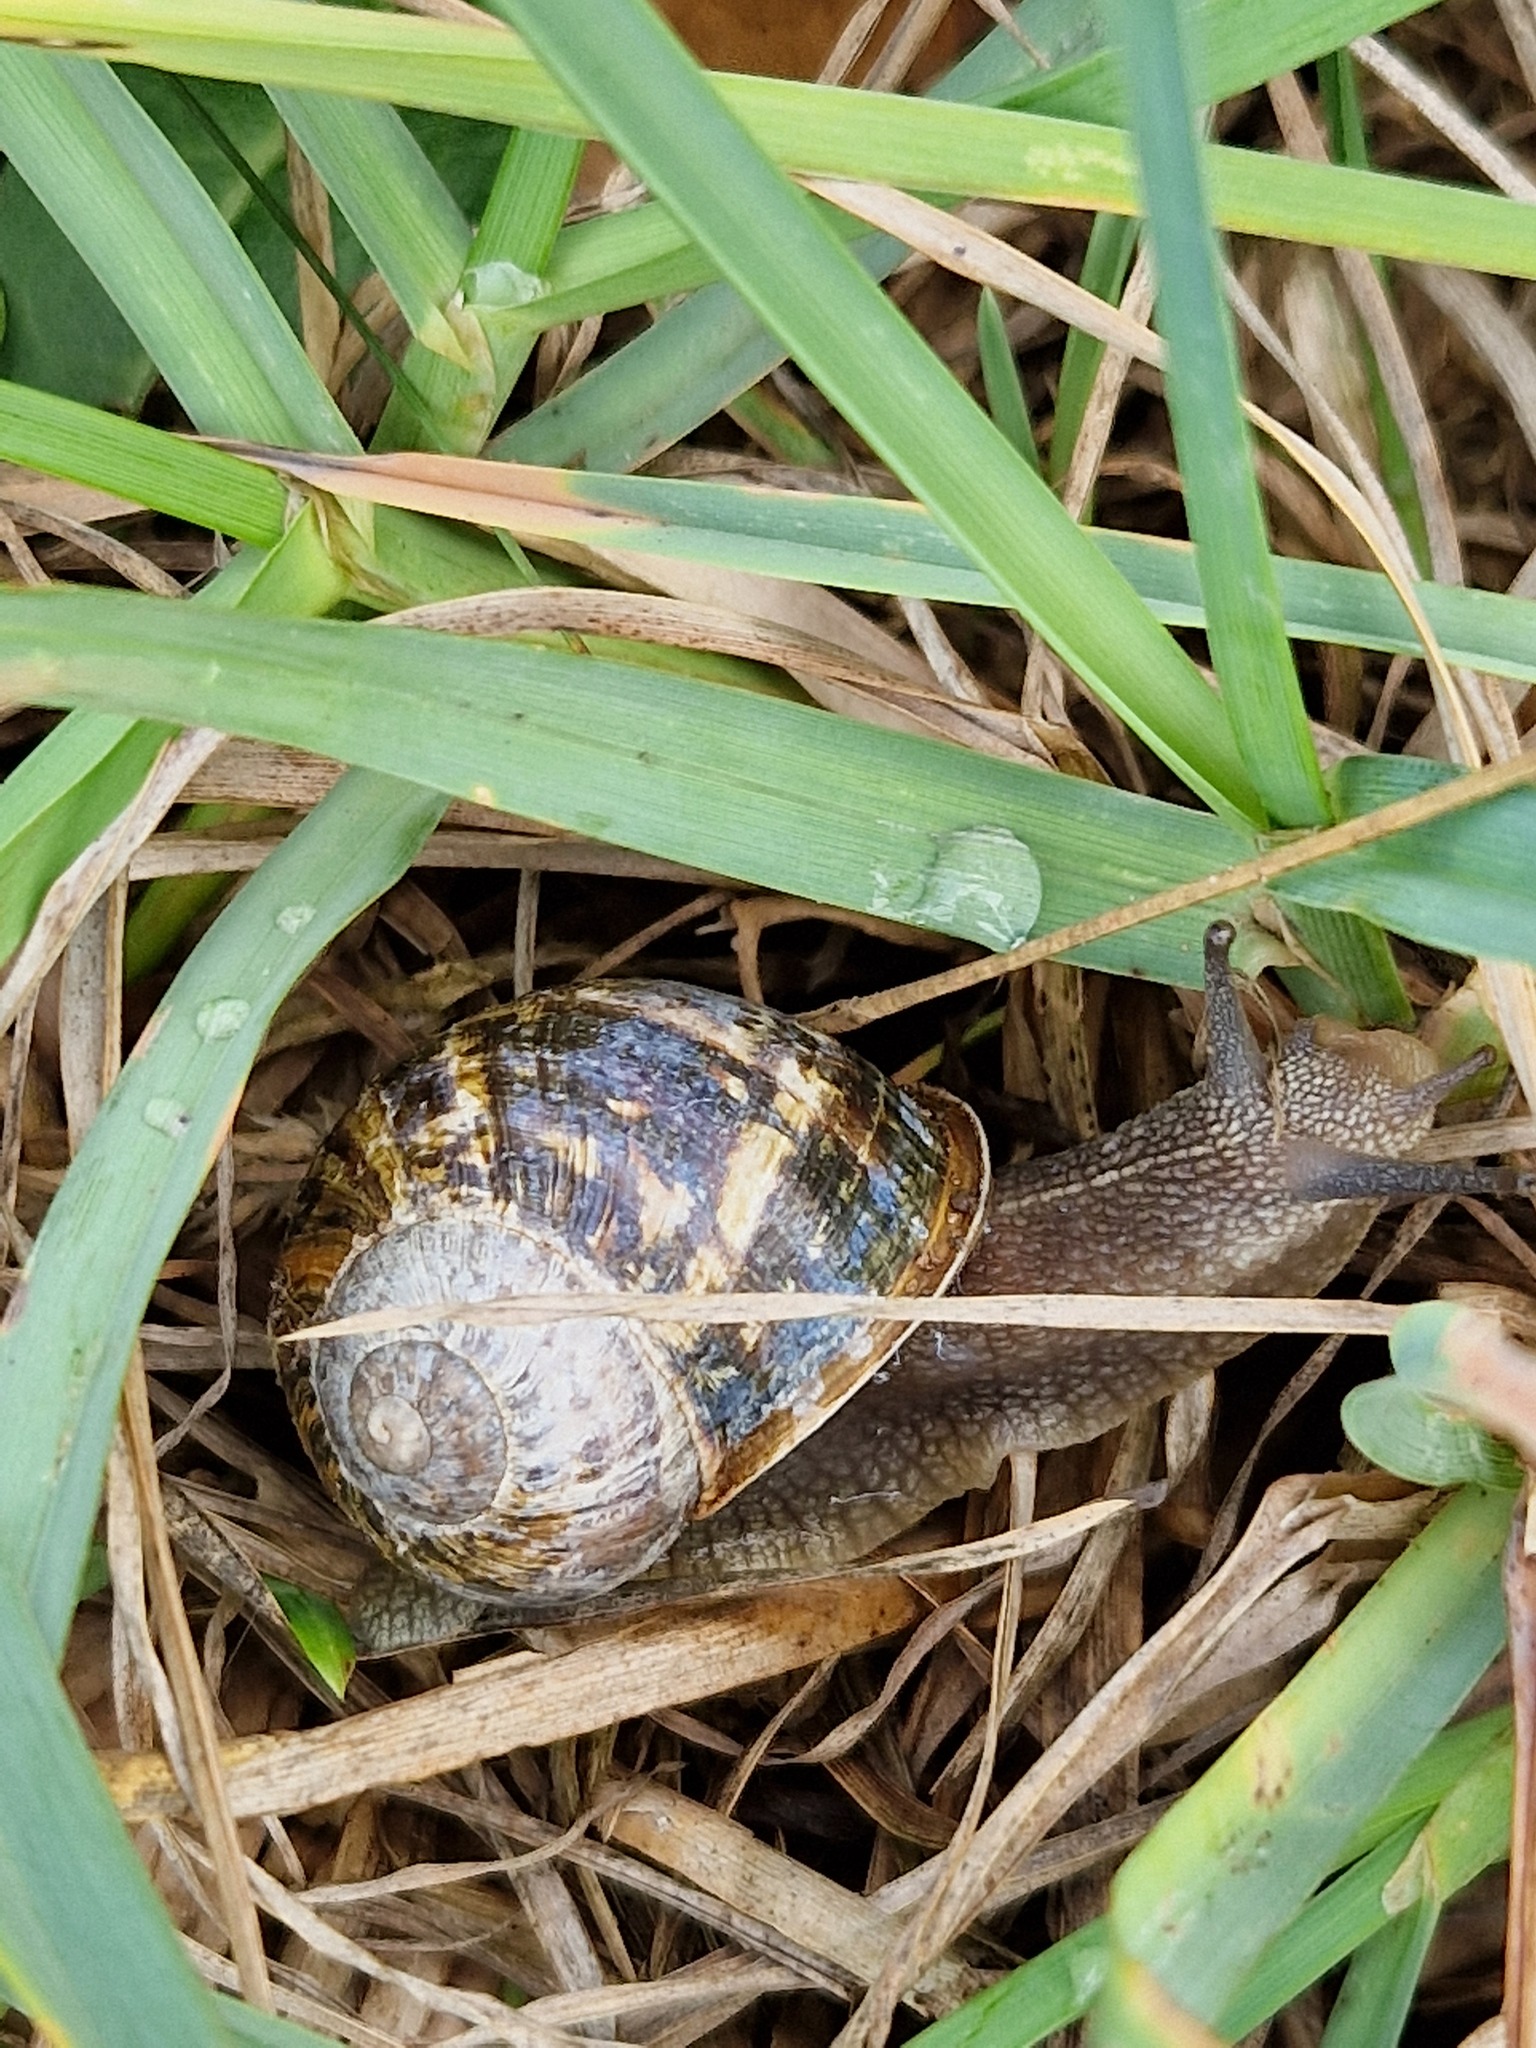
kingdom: Animalia
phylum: Mollusca
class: Gastropoda
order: Stylommatophora
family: Helicidae
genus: Cornu
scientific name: Cornu aspersum
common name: Brown garden snail
